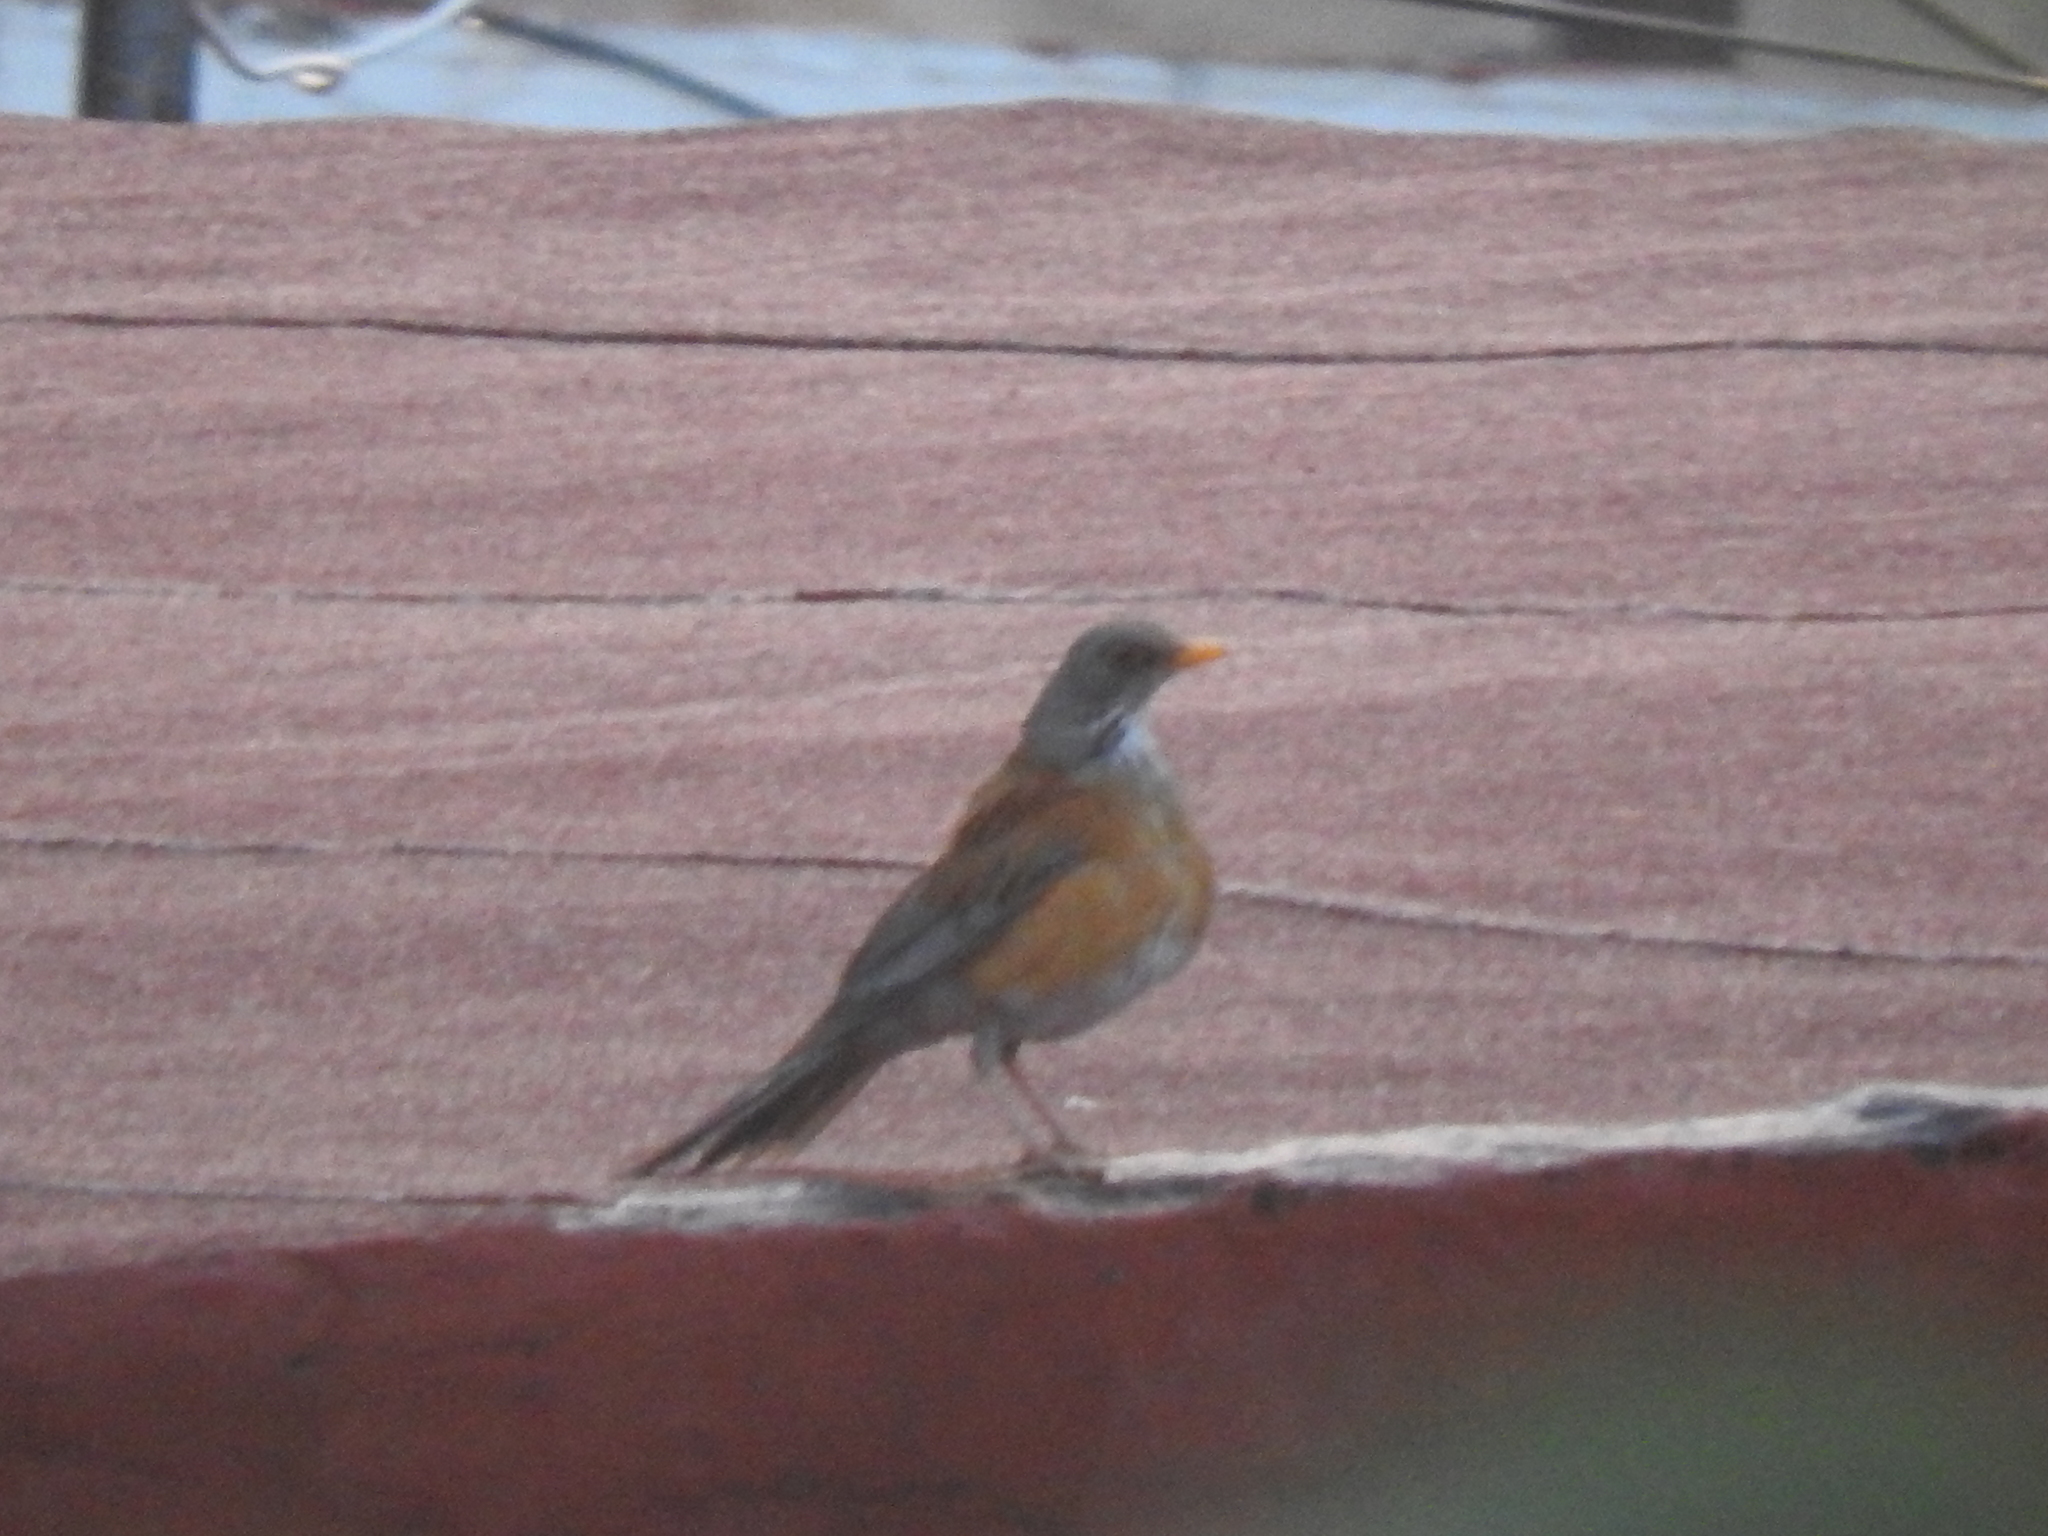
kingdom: Animalia
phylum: Chordata
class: Aves
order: Passeriformes
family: Turdidae
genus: Turdus
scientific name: Turdus rufopalliatus
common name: Rufous-backed robin
